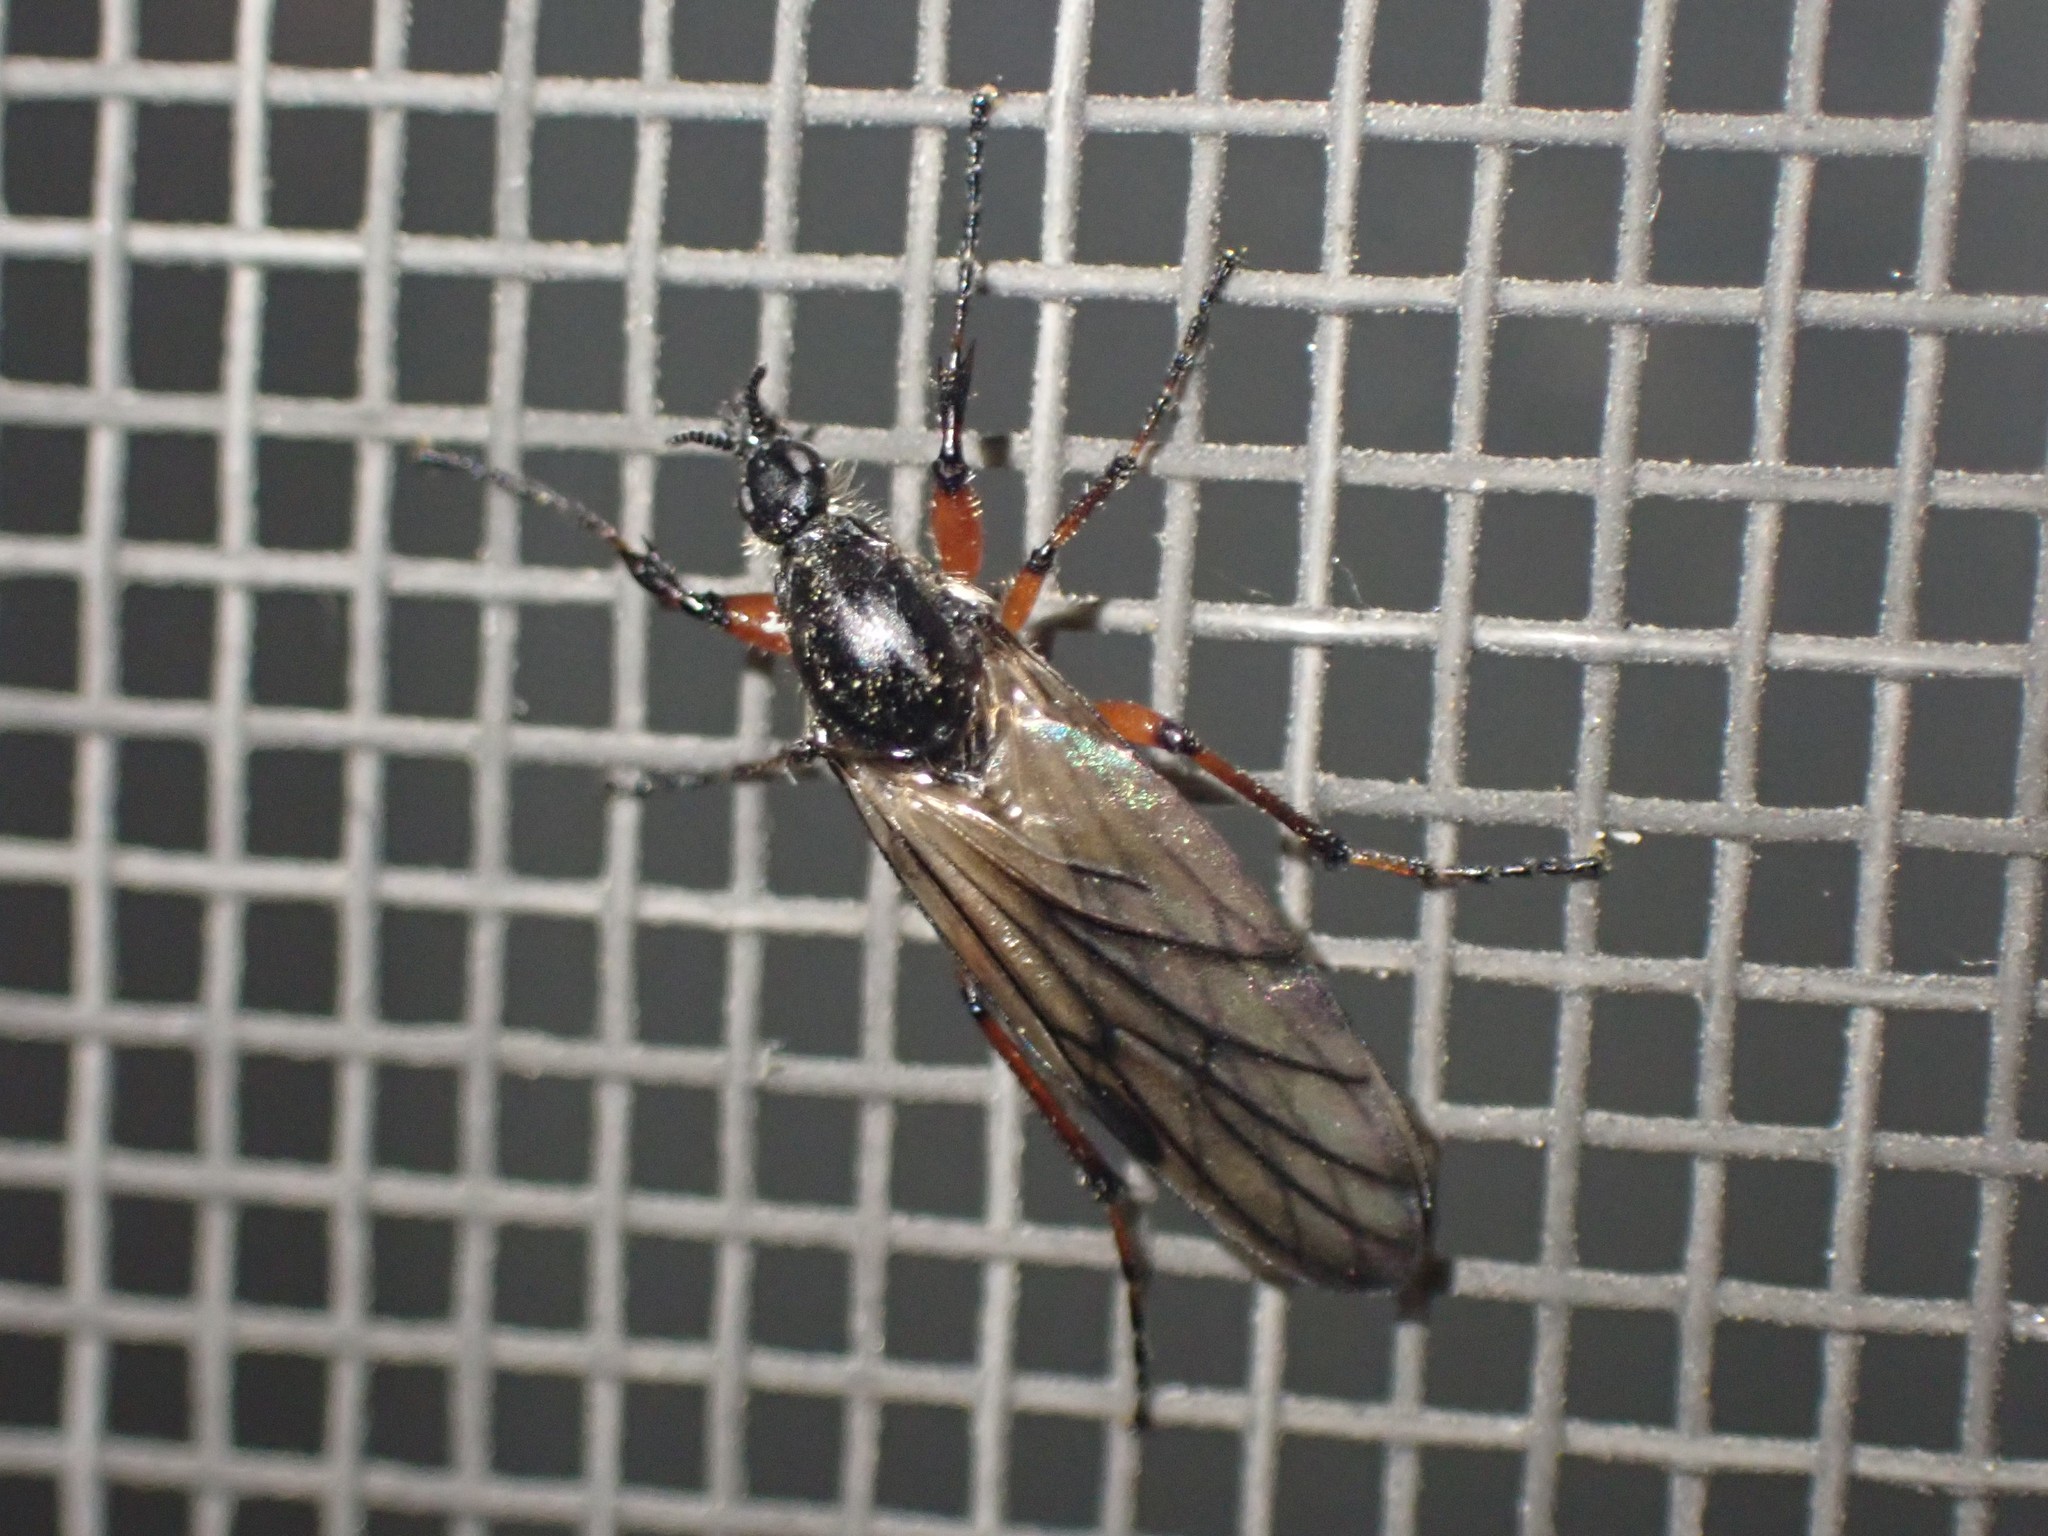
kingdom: Animalia
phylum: Arthropoda
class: Insecta
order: Diptera
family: Bibionidae
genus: Bibio
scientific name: Bibio
